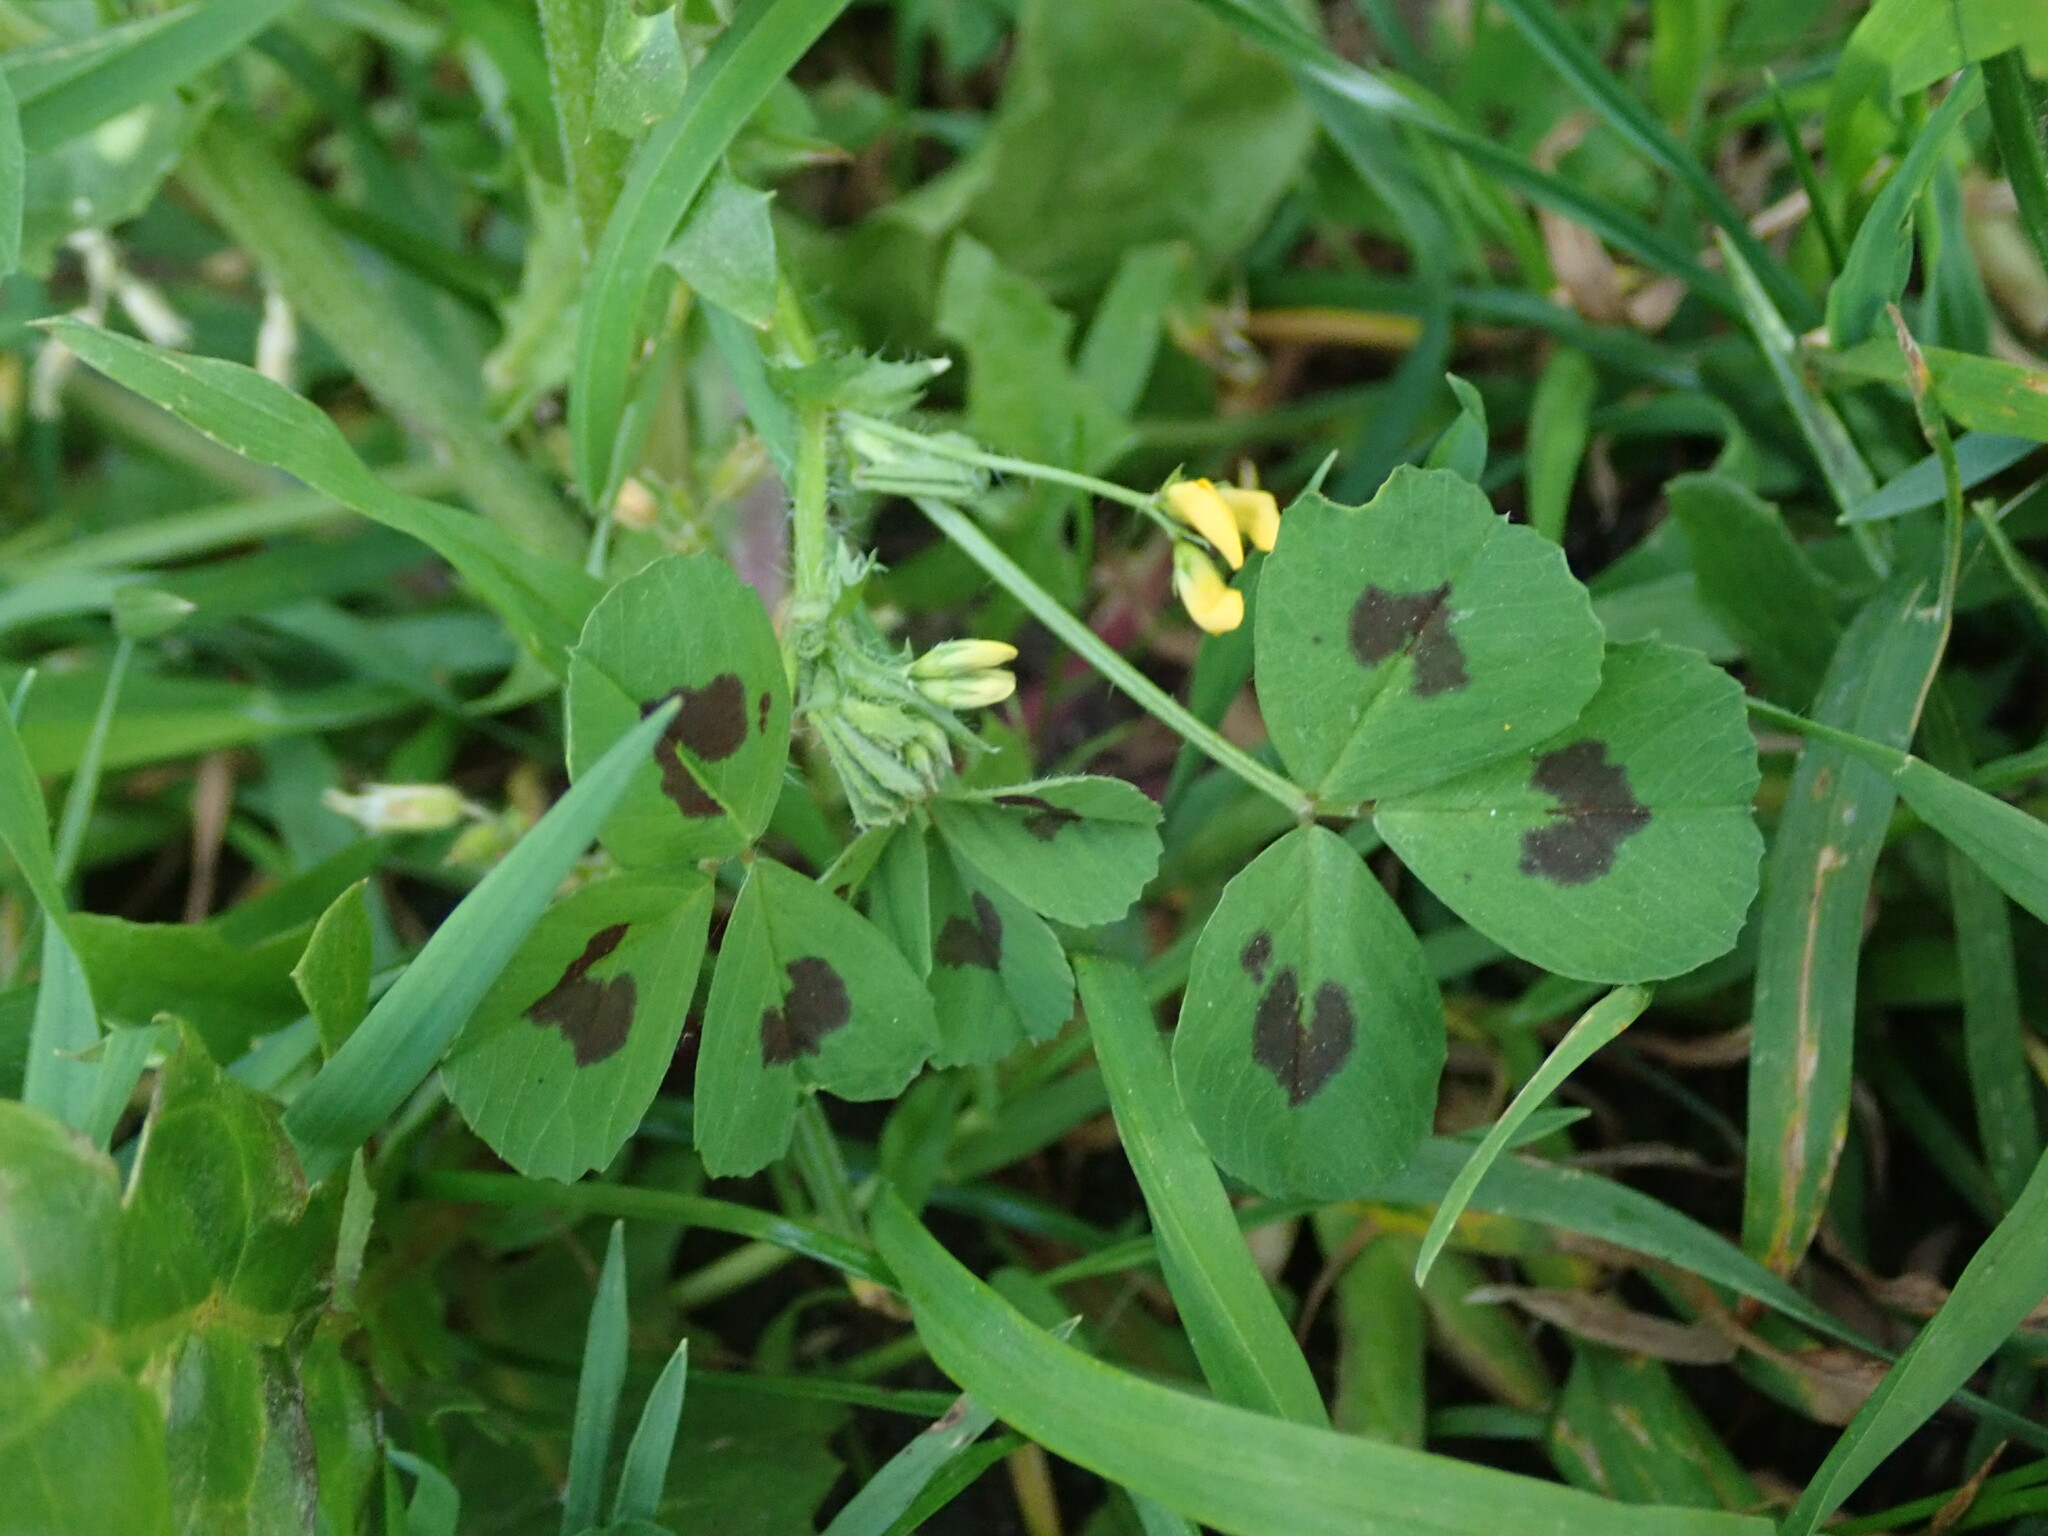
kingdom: Plantae
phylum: Tracheophyta
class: Magnoliopsida
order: Fabales
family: Fabaceae
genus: Medicago
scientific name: Medicago arabica
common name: Spotted medick
